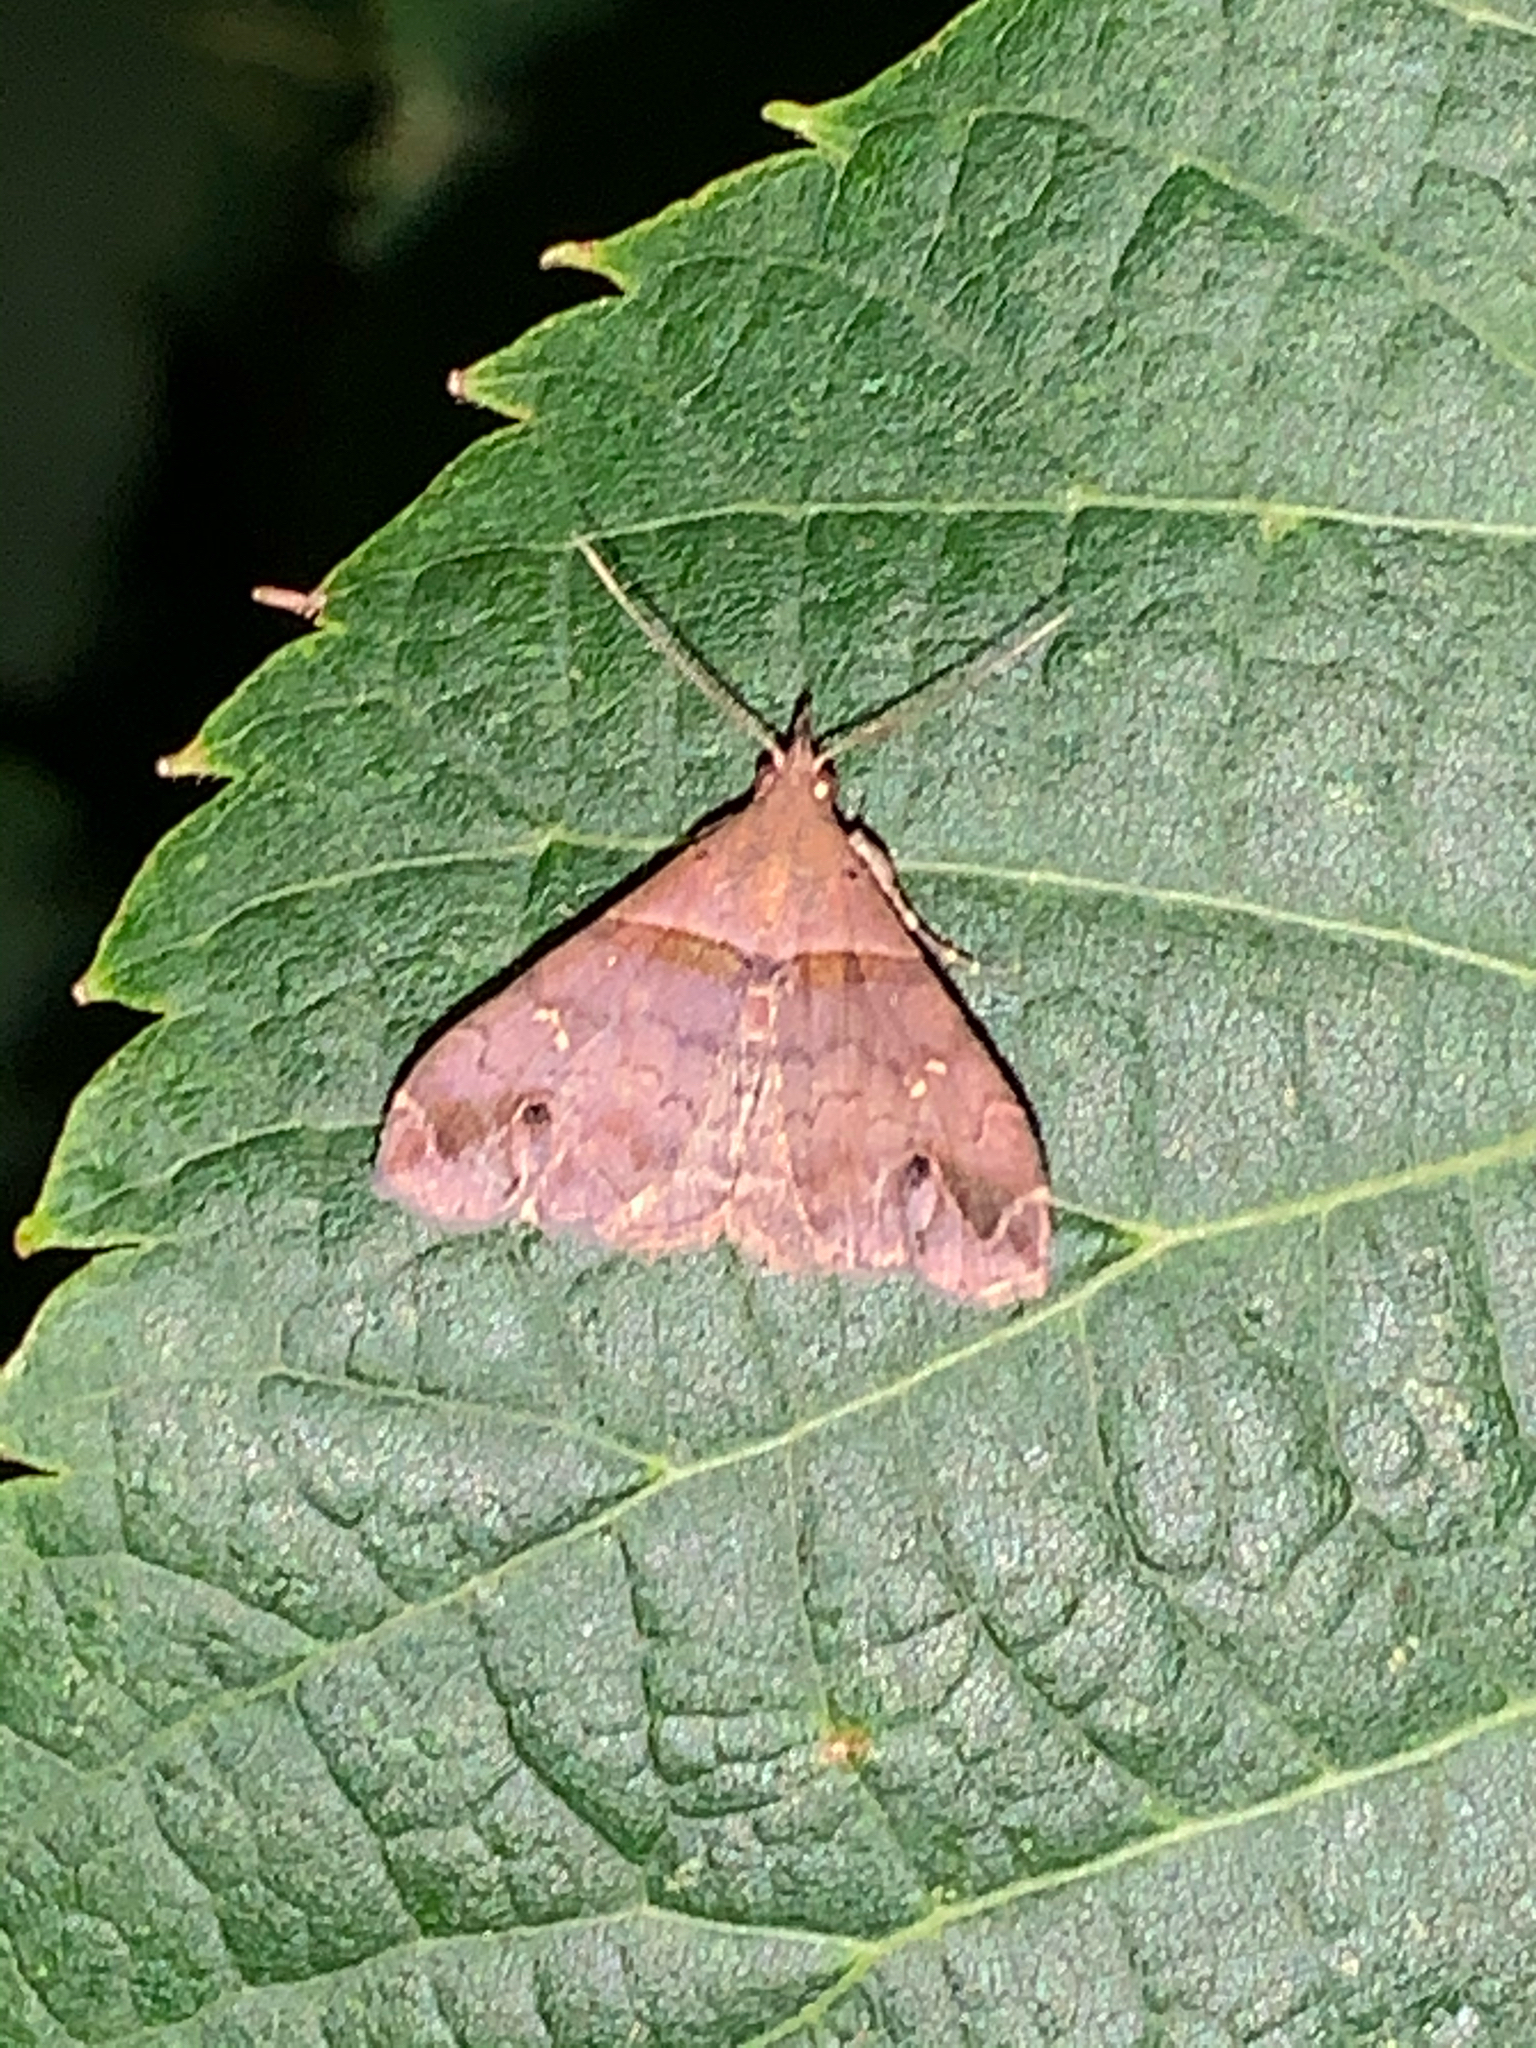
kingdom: Animalia
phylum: Arthropoda
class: Insecta
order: Lepidoptera
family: Erebidae
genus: Lascoria
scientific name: Lascoria ambigualis
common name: Ambiguous moth
